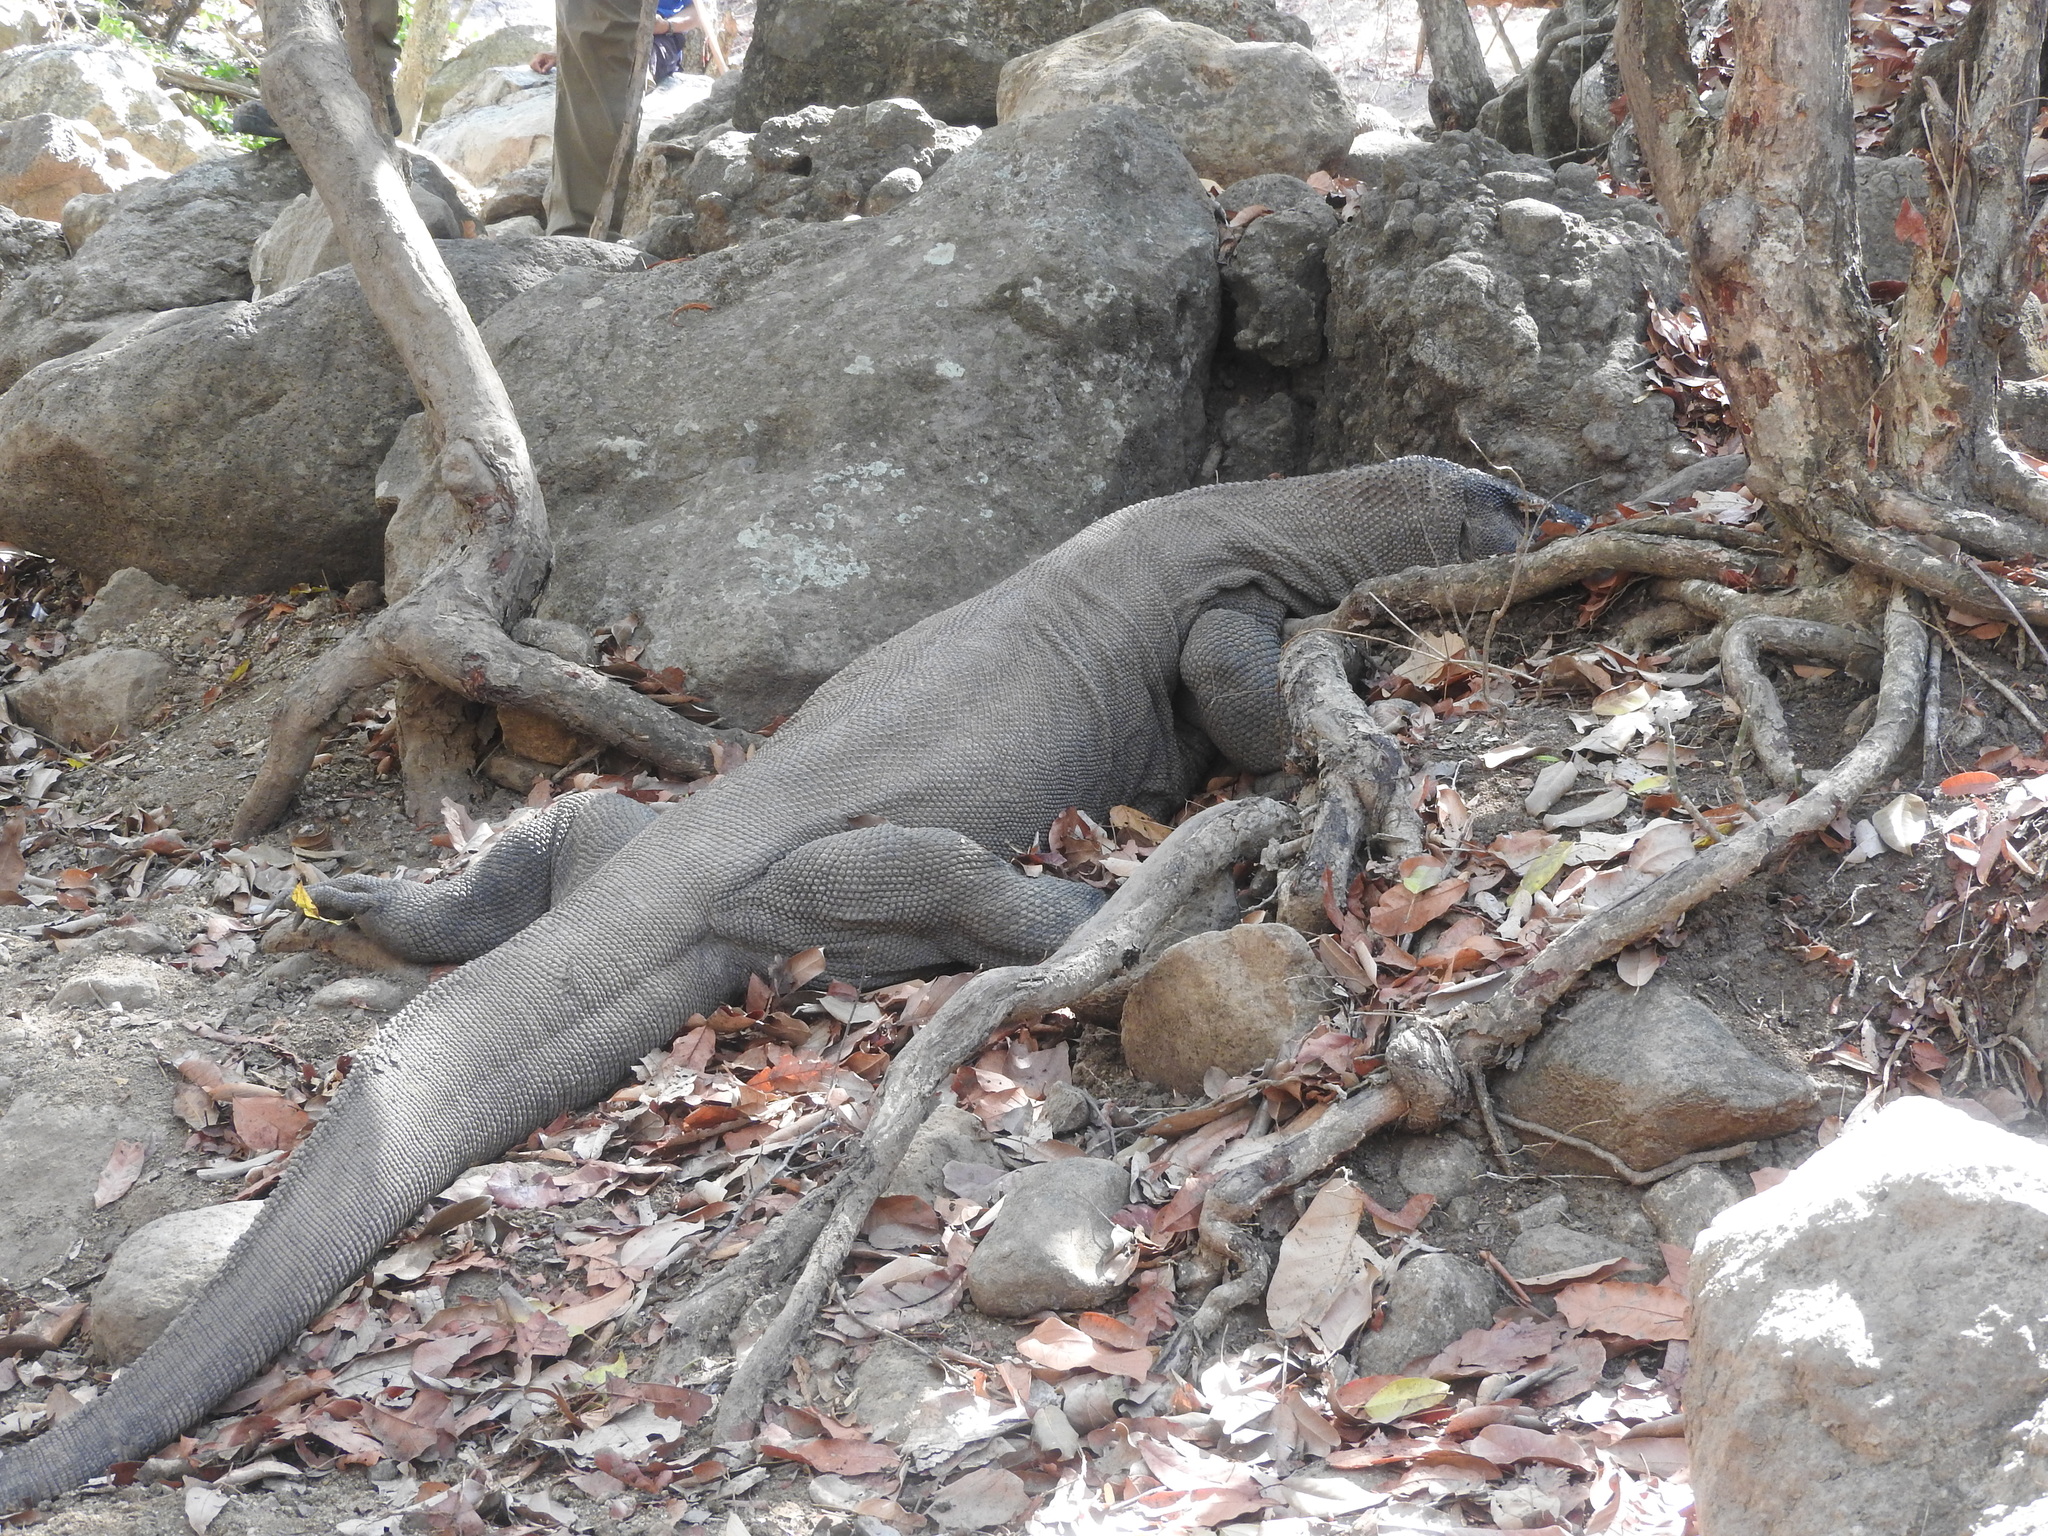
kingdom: Animalia
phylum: Chordata
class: Squamata
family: Varanidae
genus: Varanus
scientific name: Varanus komodoensis
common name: Komodo dragon
